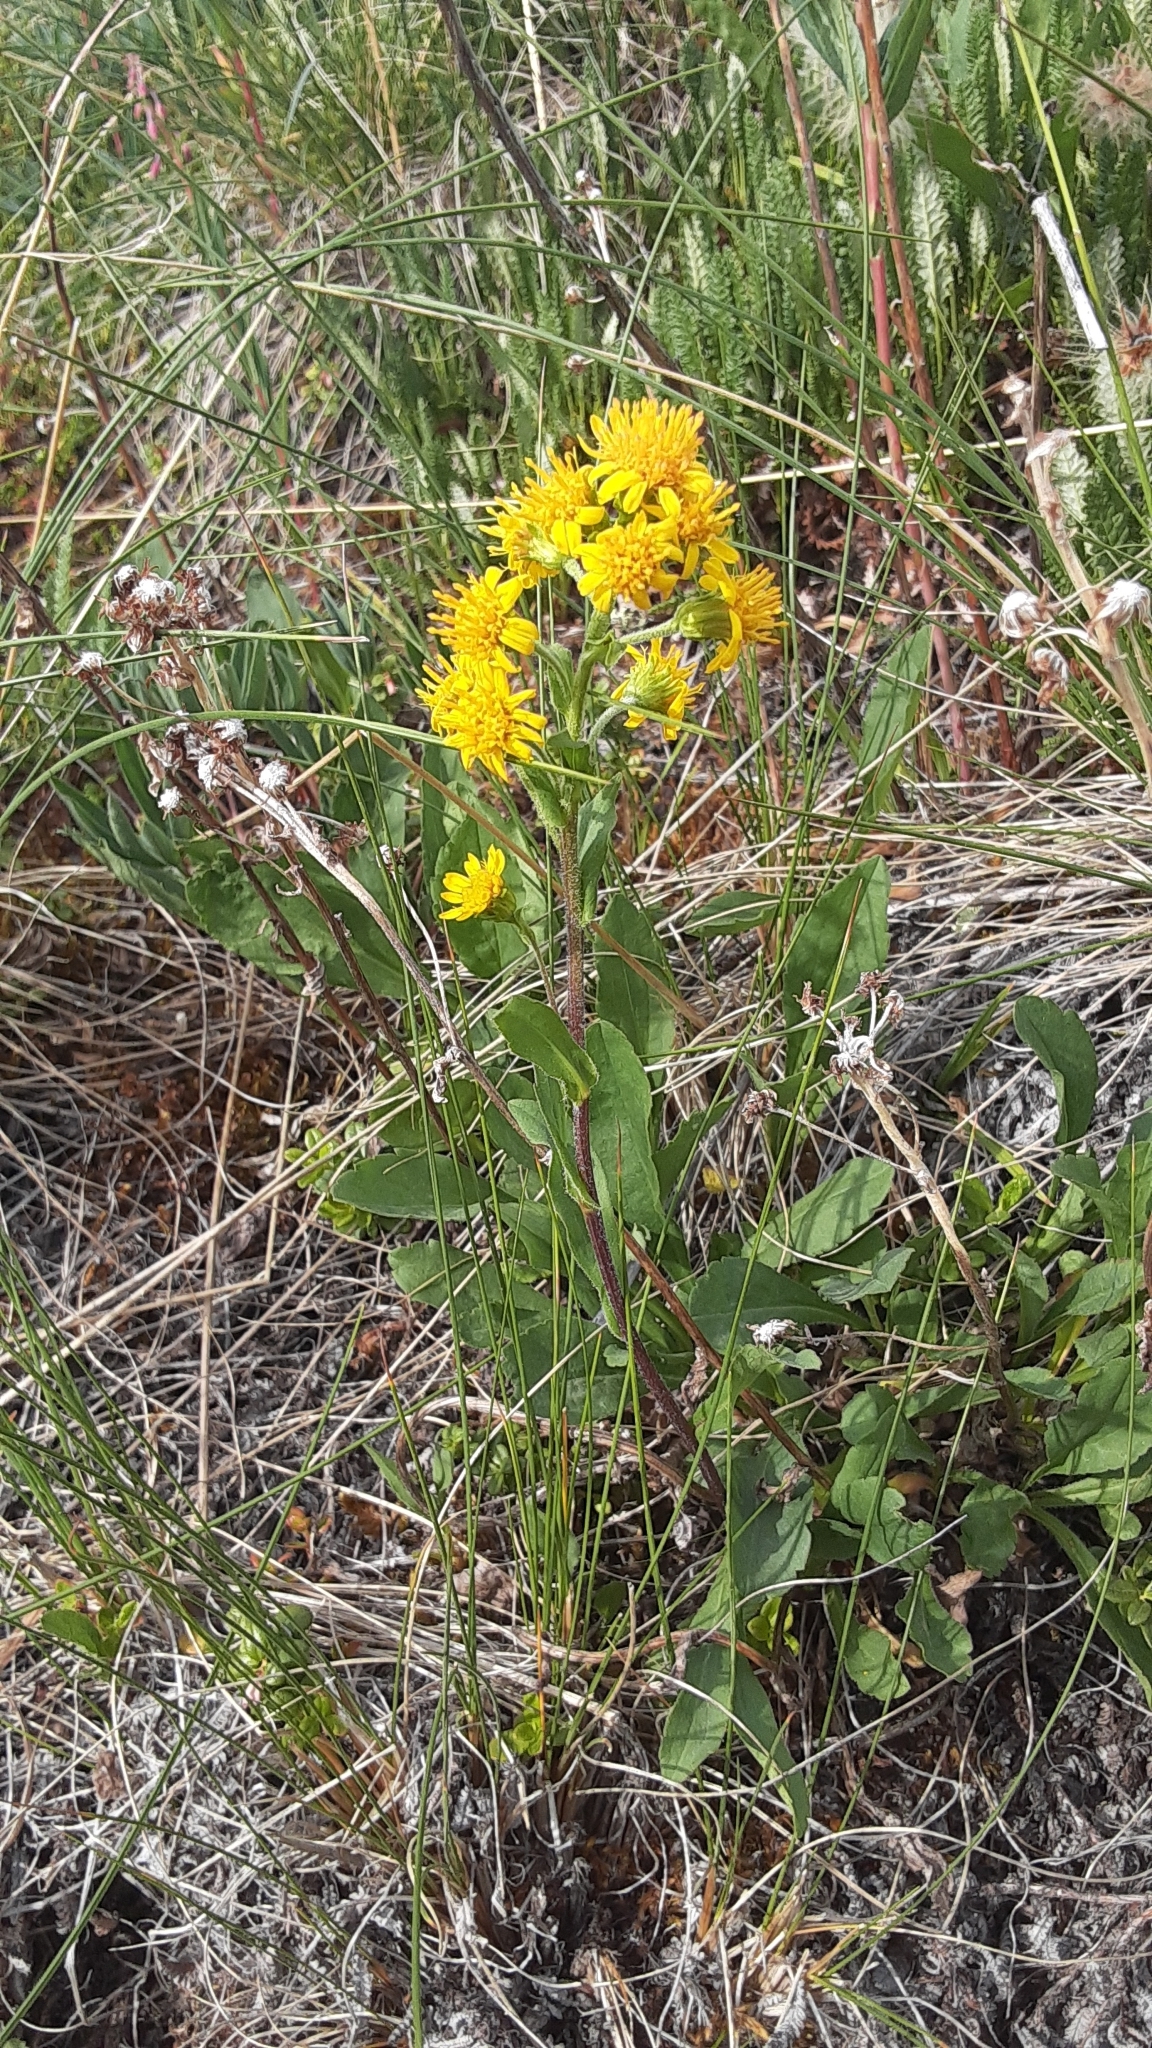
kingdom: Plantae
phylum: Tracheophyta
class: Magnoliopsida
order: Asterales
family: Asteraceae
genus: Solidago
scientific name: Solidago multiradiata
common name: Northern goldenrod
